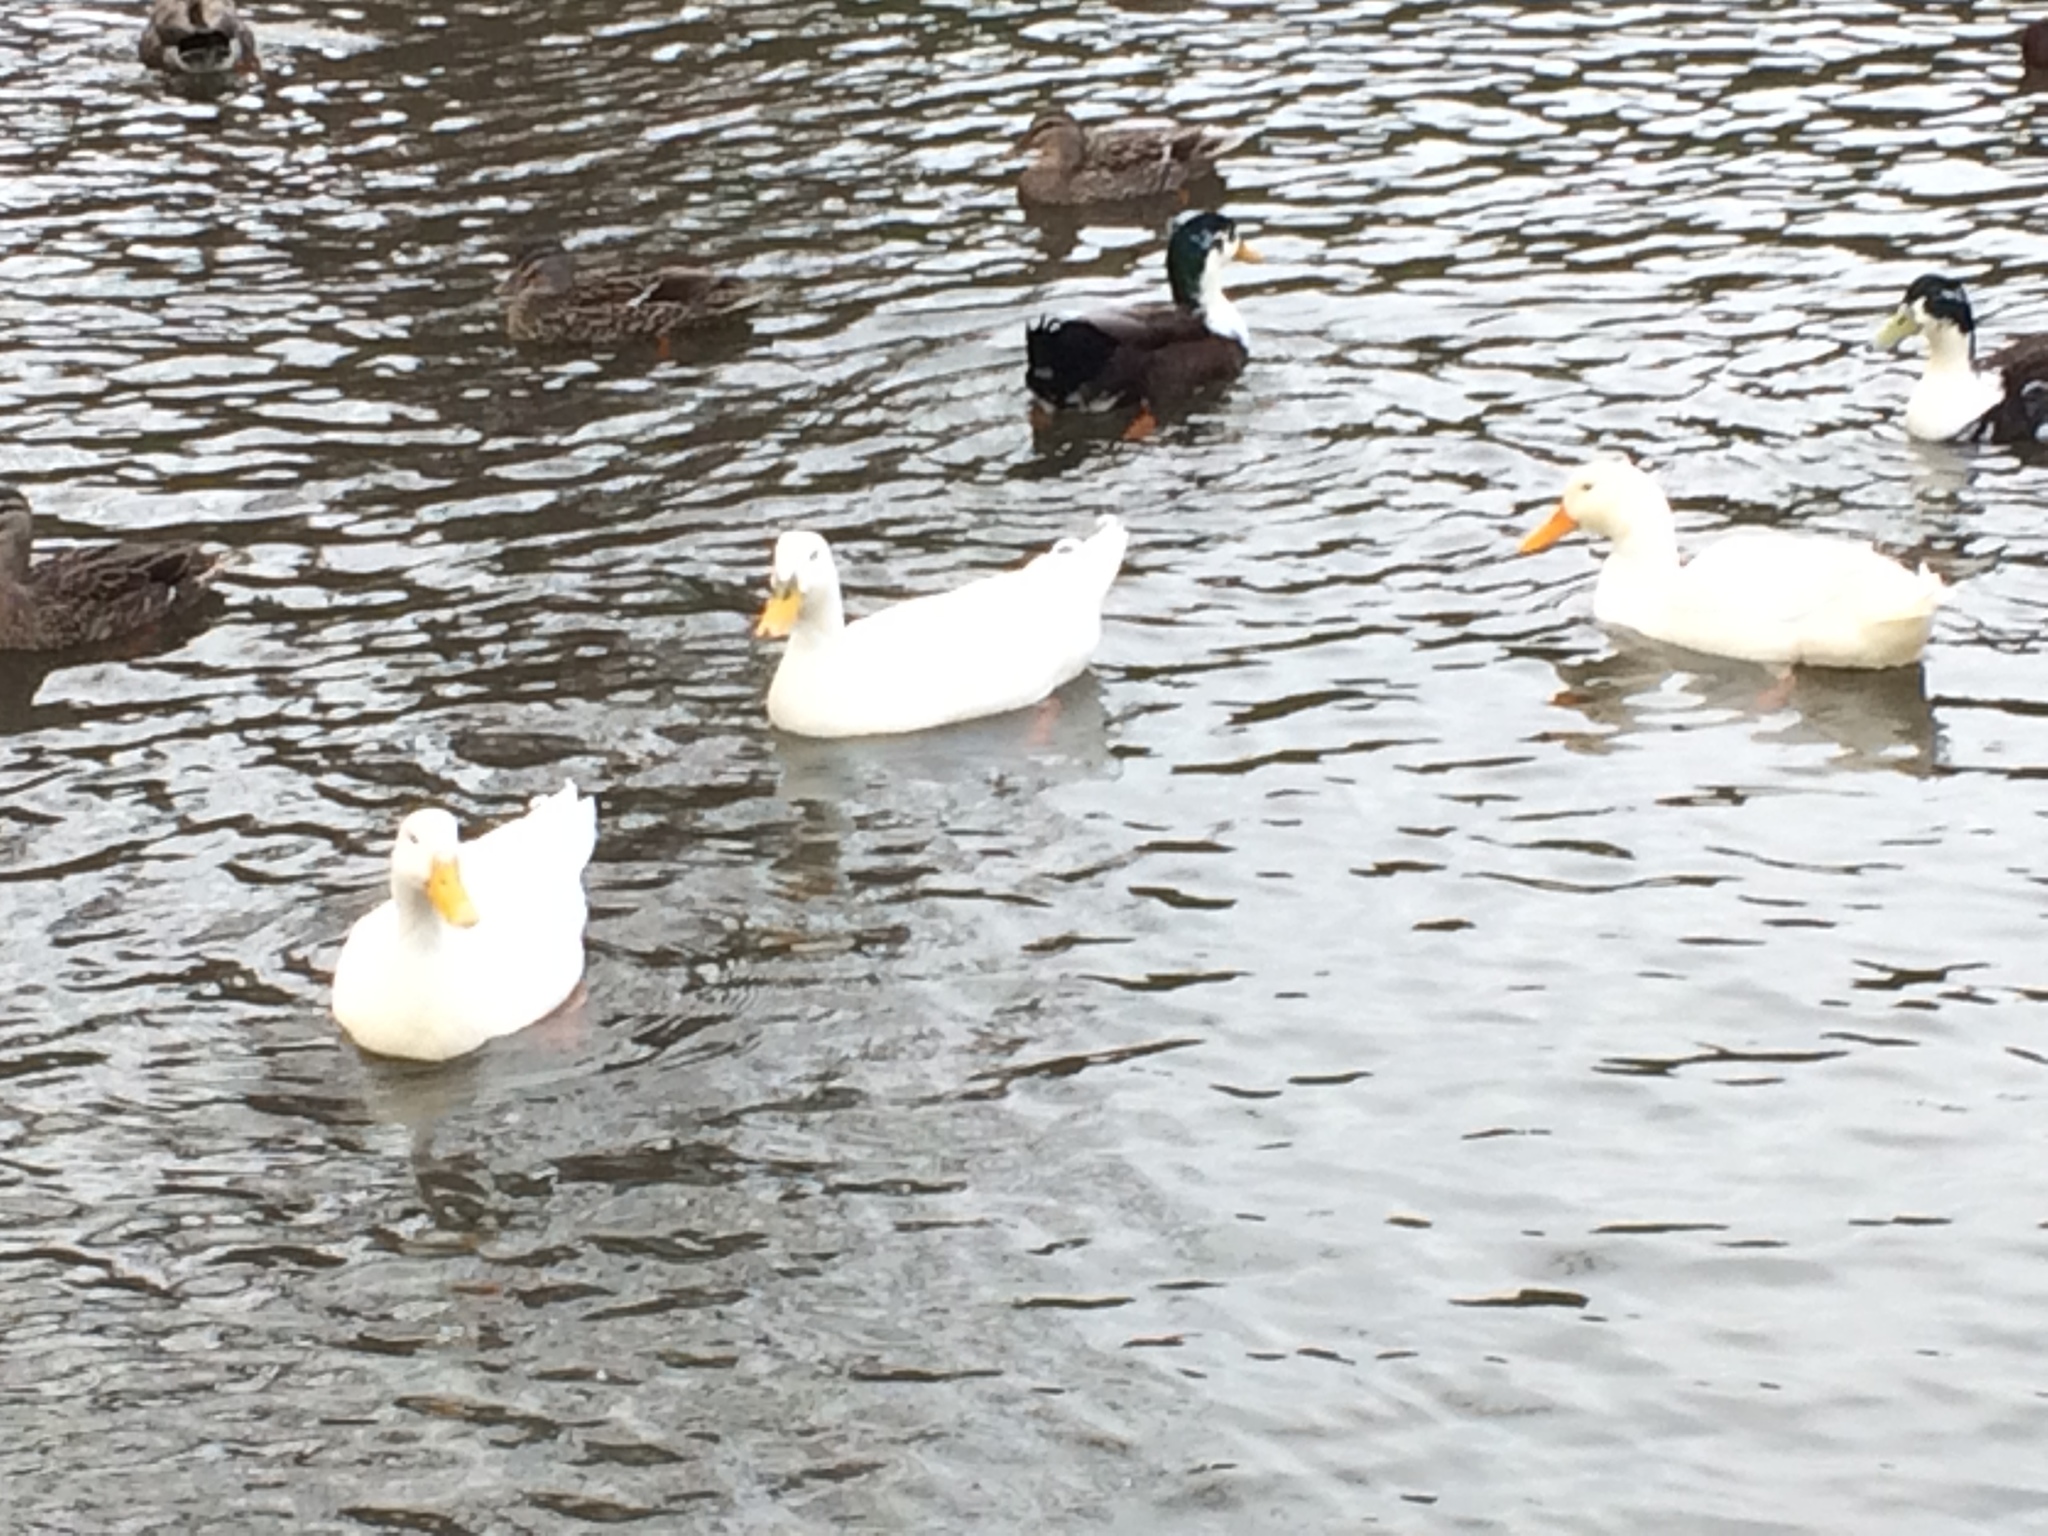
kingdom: Animalia
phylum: Chordata
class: Aves
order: Anseriformes
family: Anatidae
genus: Anas
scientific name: Anas platyrhynchos
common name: Mallard
